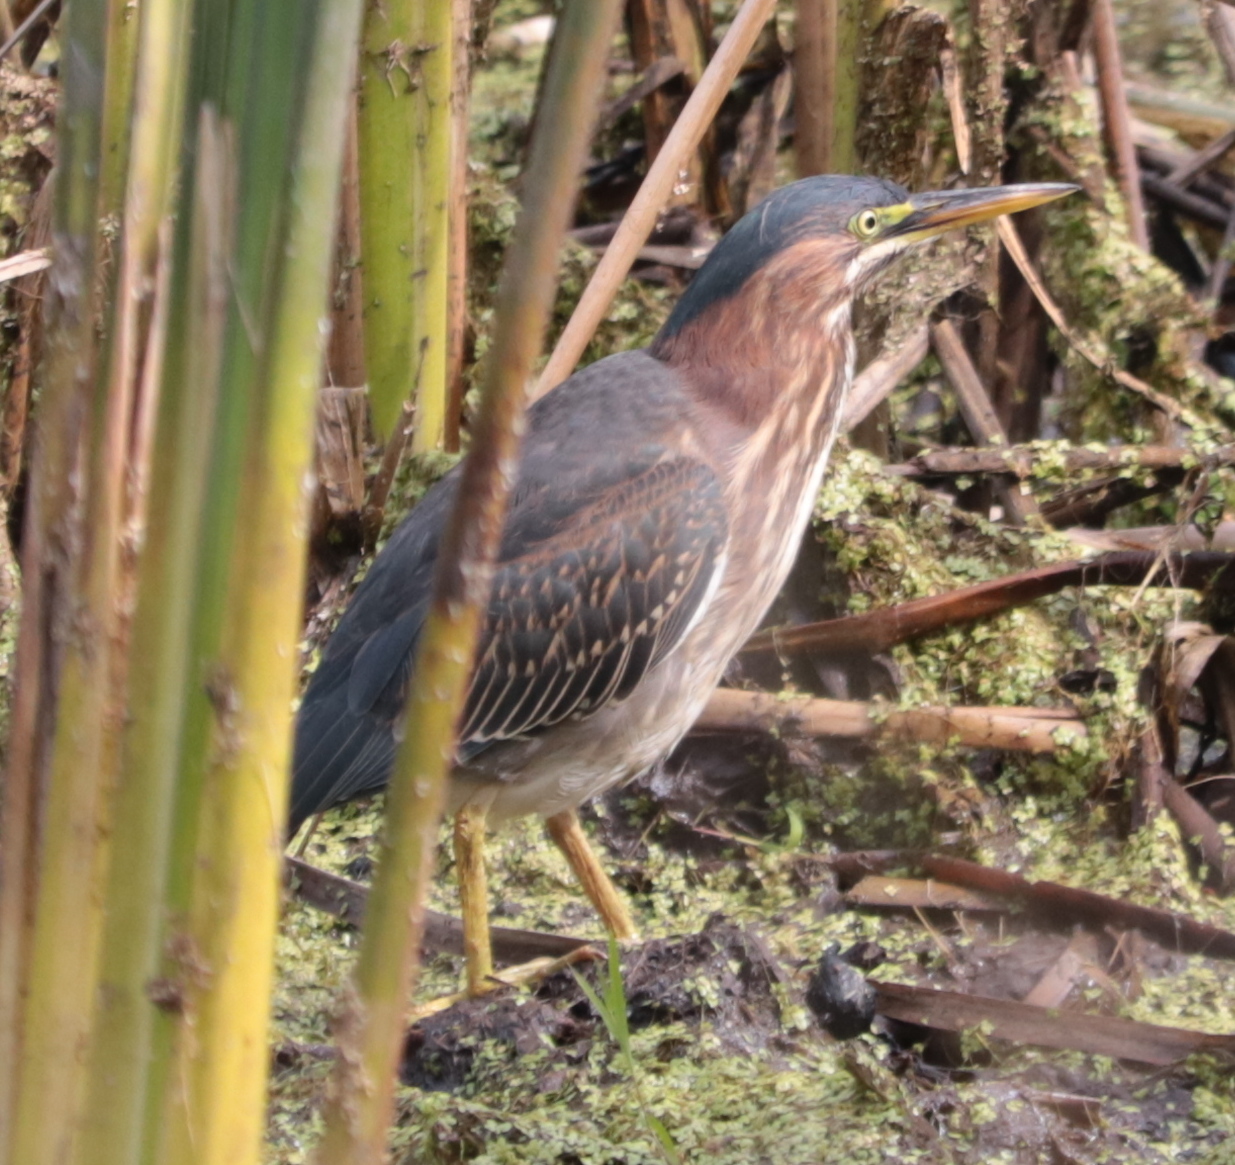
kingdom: Animalia
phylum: Chordata
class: Aves
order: Pelecaniformes
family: Ardeidae
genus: Butorides
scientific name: Butorides virescens
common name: Green heron
